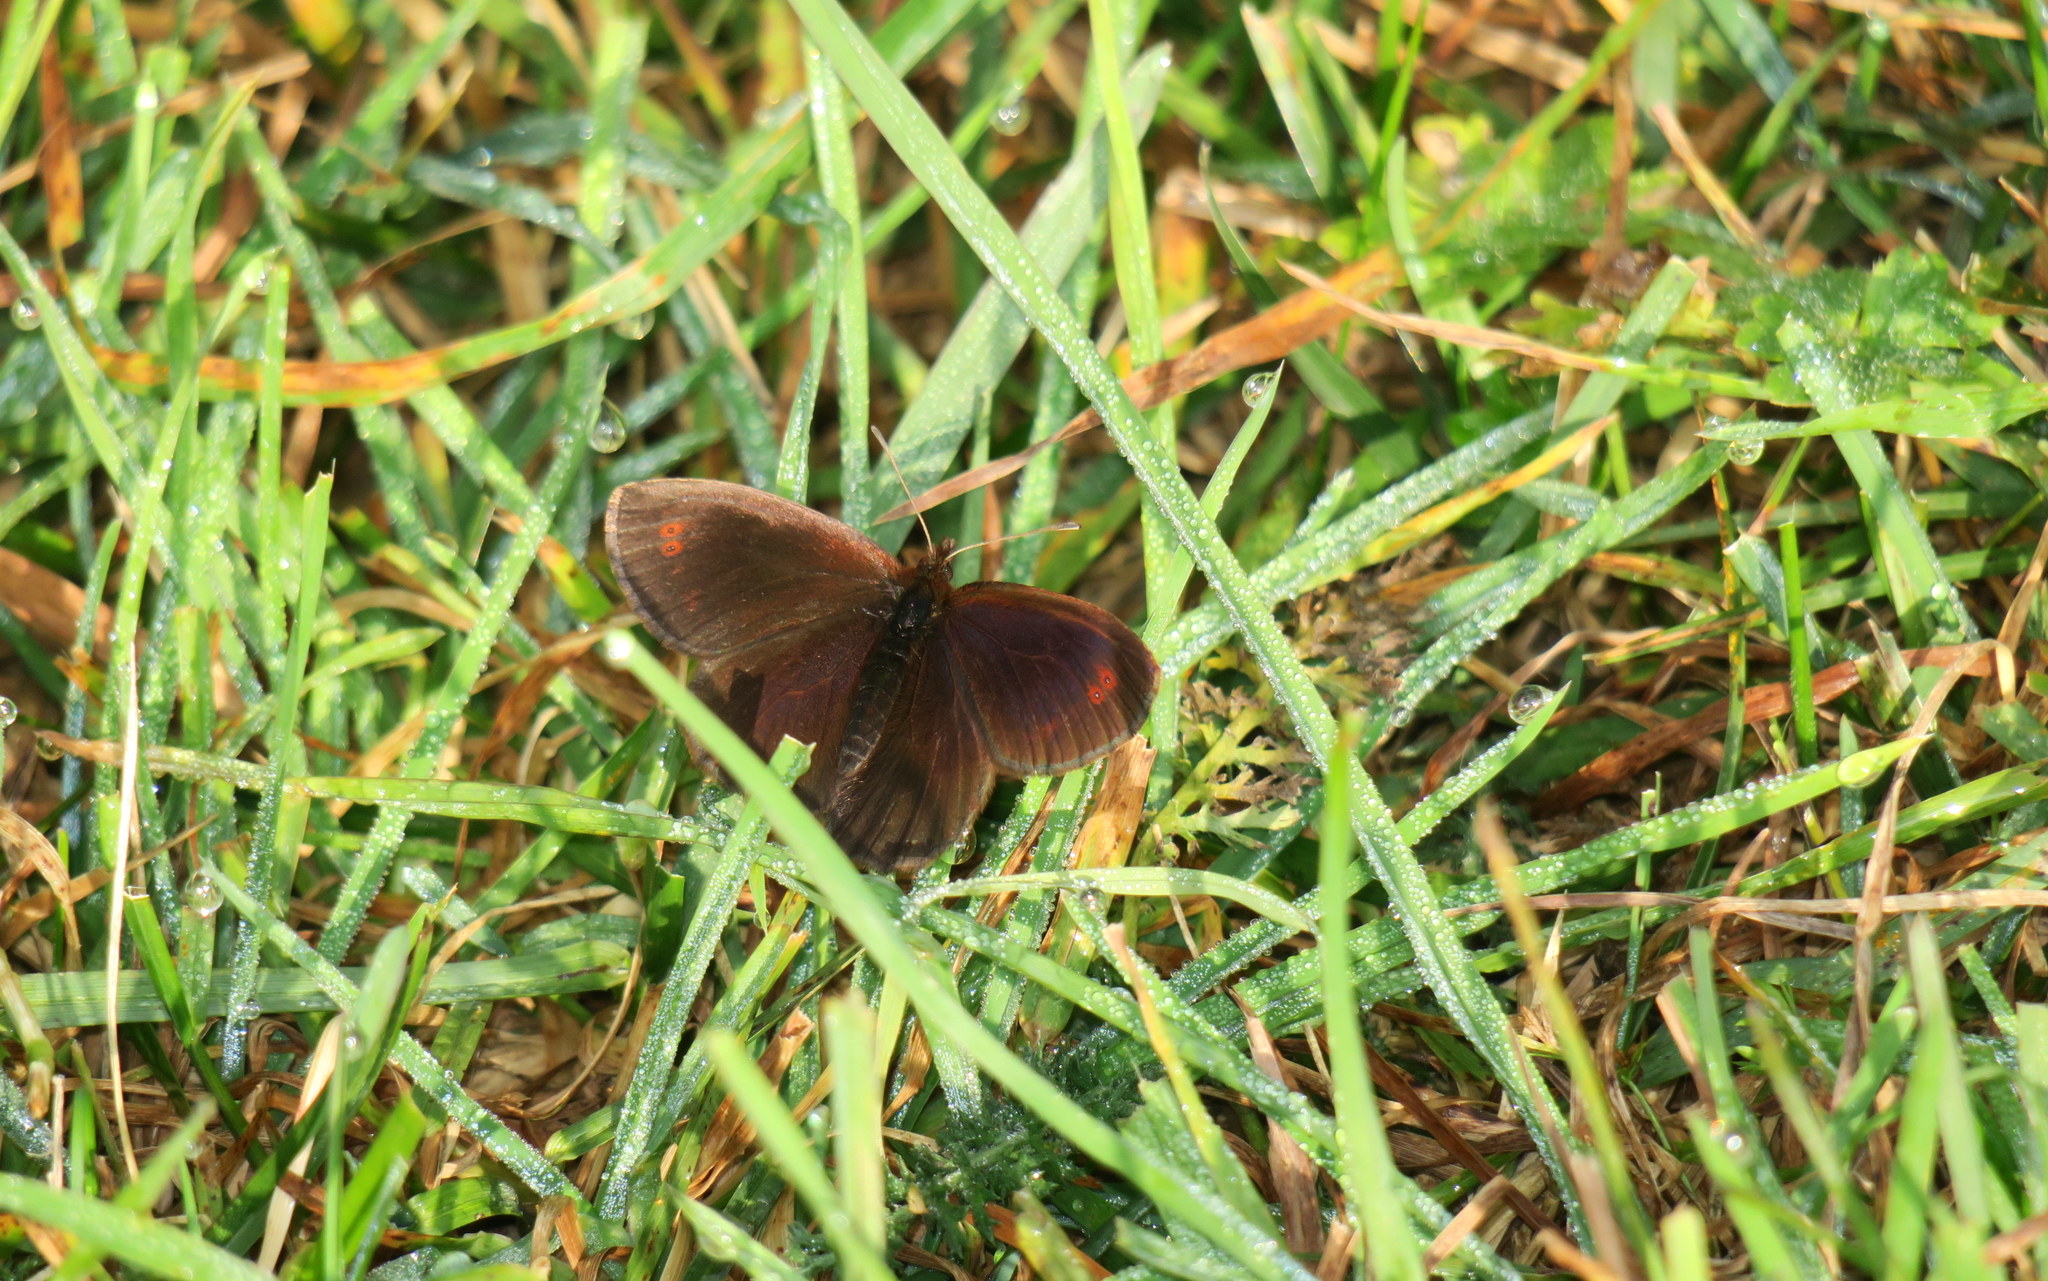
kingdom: Animalia
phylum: Arthropoda
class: Insecta
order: Lepidoptera
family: Nymphalidae
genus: Erebia
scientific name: Erebia pronoe
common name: Water ringlet
